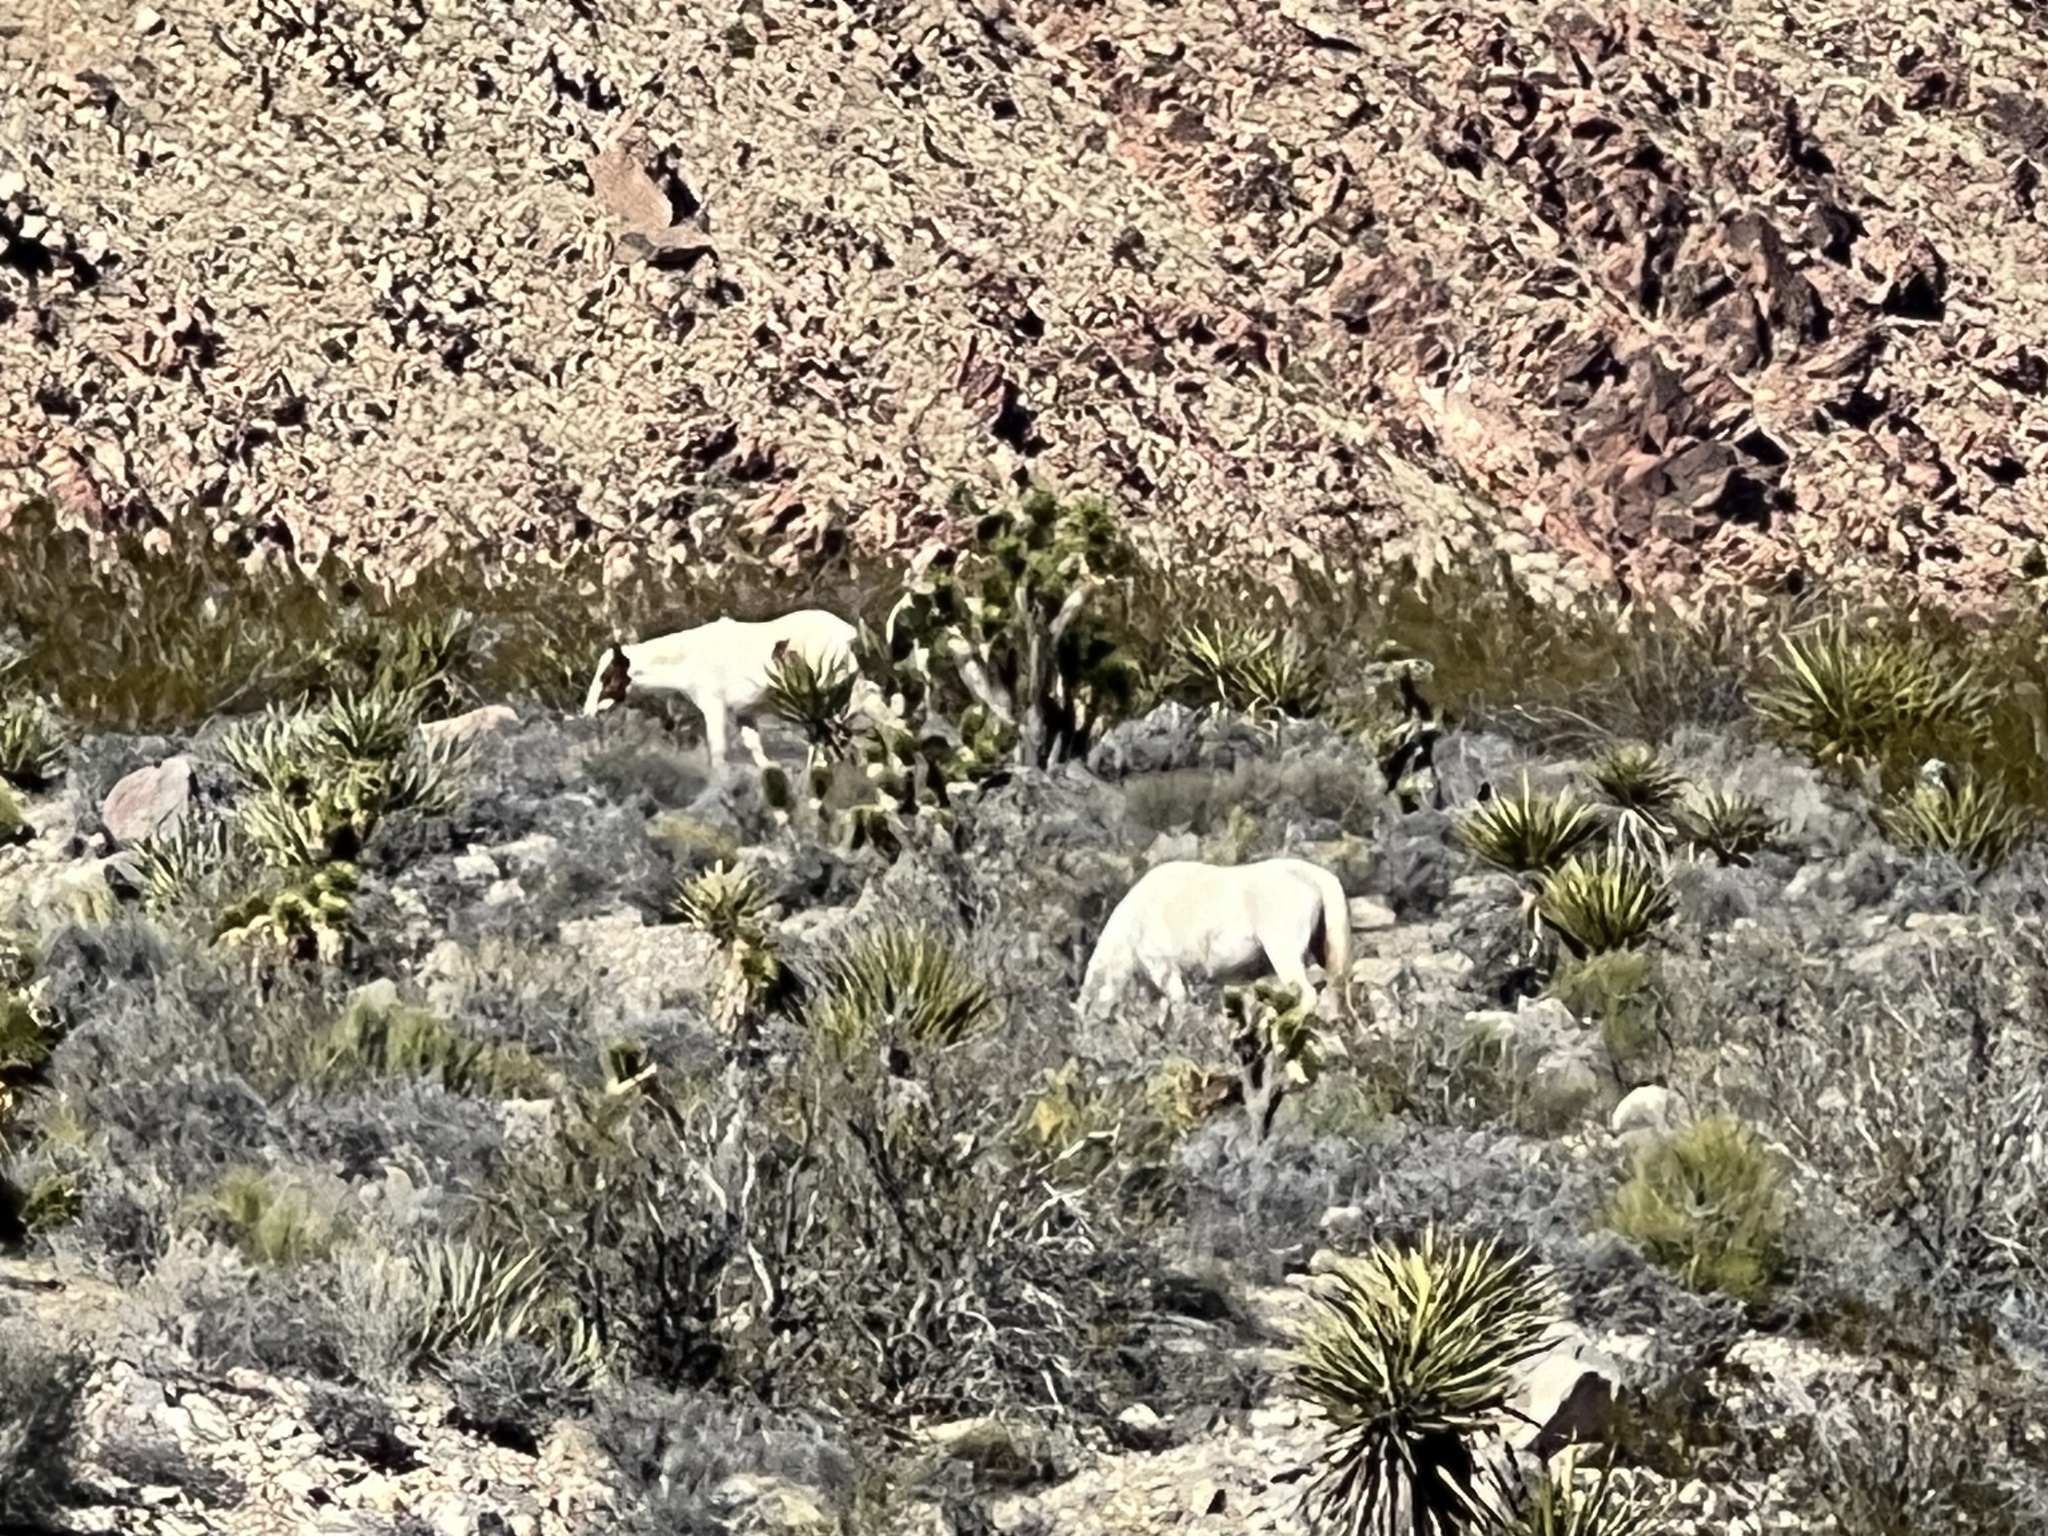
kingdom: Animalia
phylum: Chordata
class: Mammalia
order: Perissodactyla
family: Equidae
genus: Equus
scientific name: Equus caballus
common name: Horse
